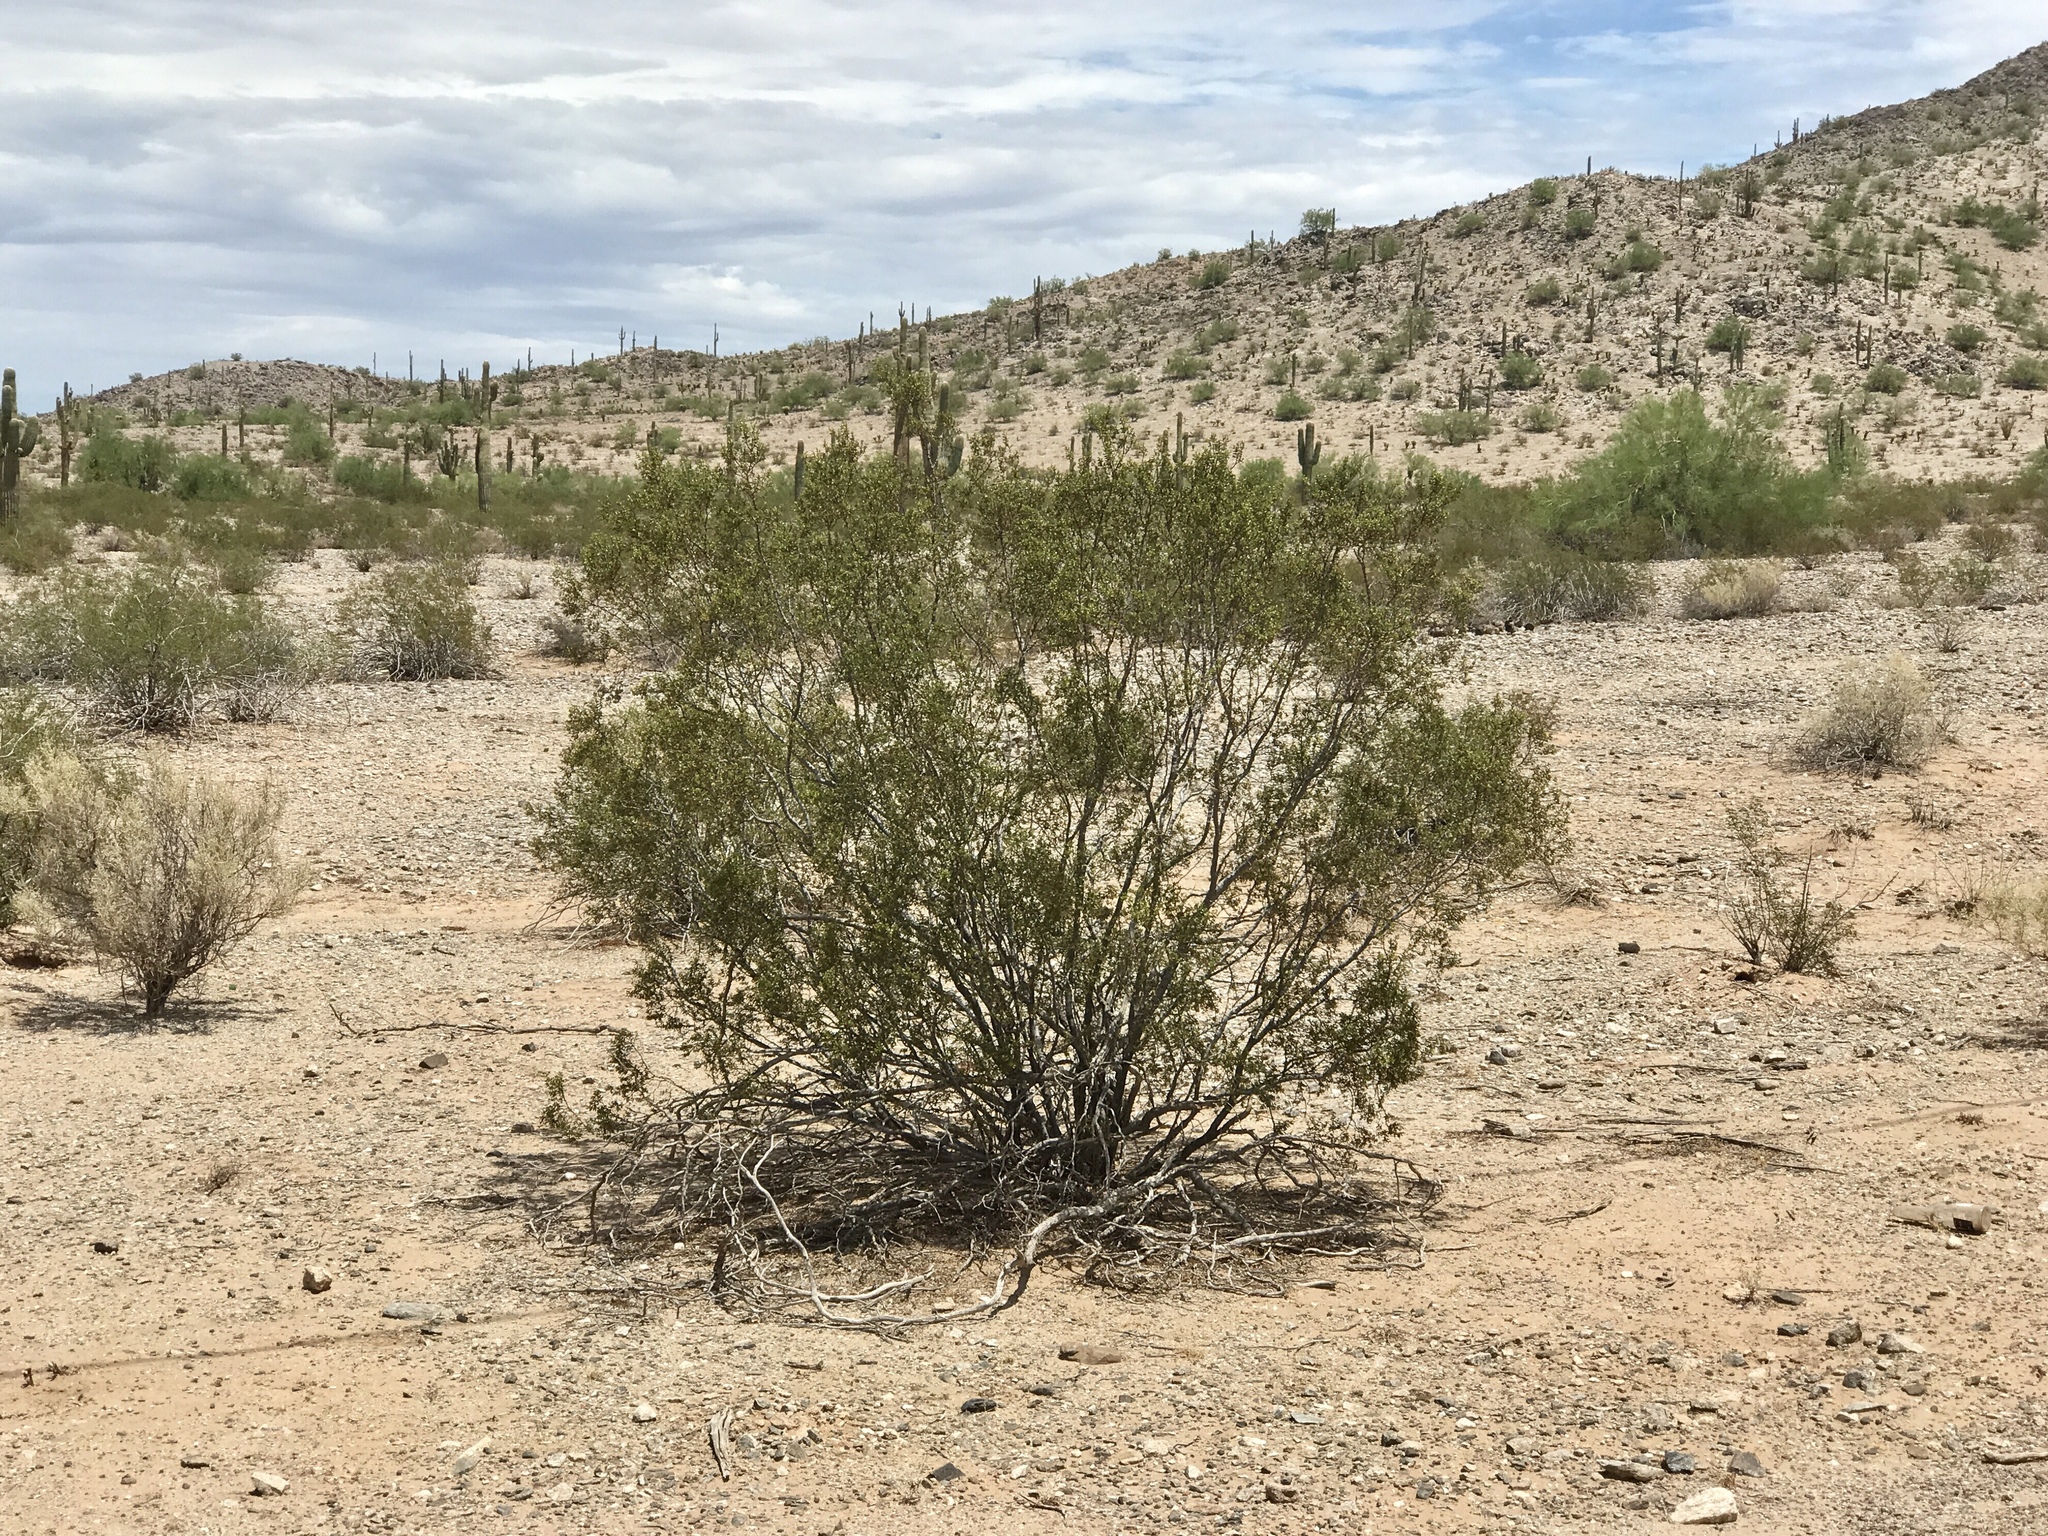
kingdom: Plantae
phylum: Tracheophyta
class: Magnoliopsida
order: Zygophyllales
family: Zygophyllaceae
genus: Larrea
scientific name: Larrea tridentata
